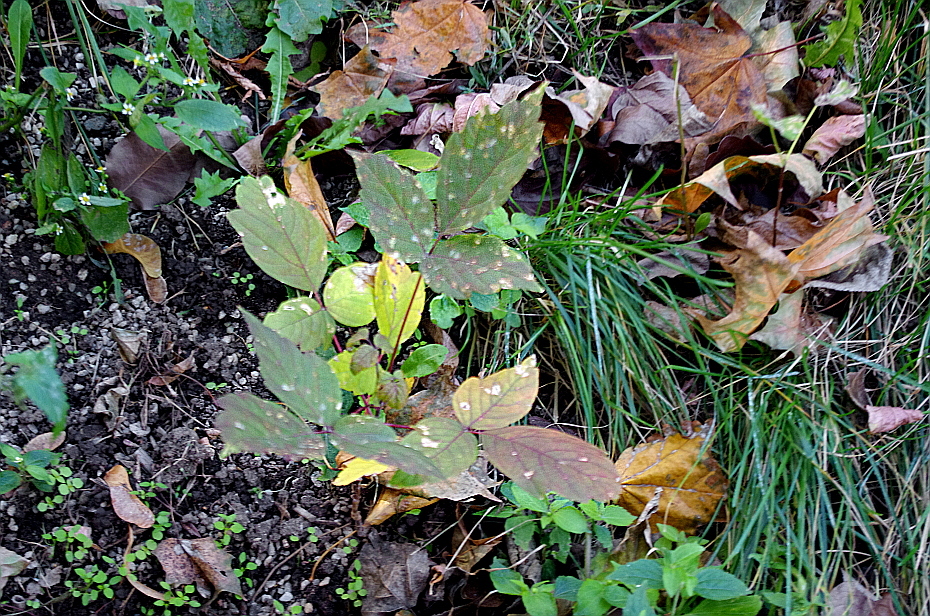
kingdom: Plantae
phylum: Tracheophyta
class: Magnoliopsida
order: Sapindales
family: Sapindaceae
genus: Acer
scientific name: Acer negundo
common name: Ashleaf maple
